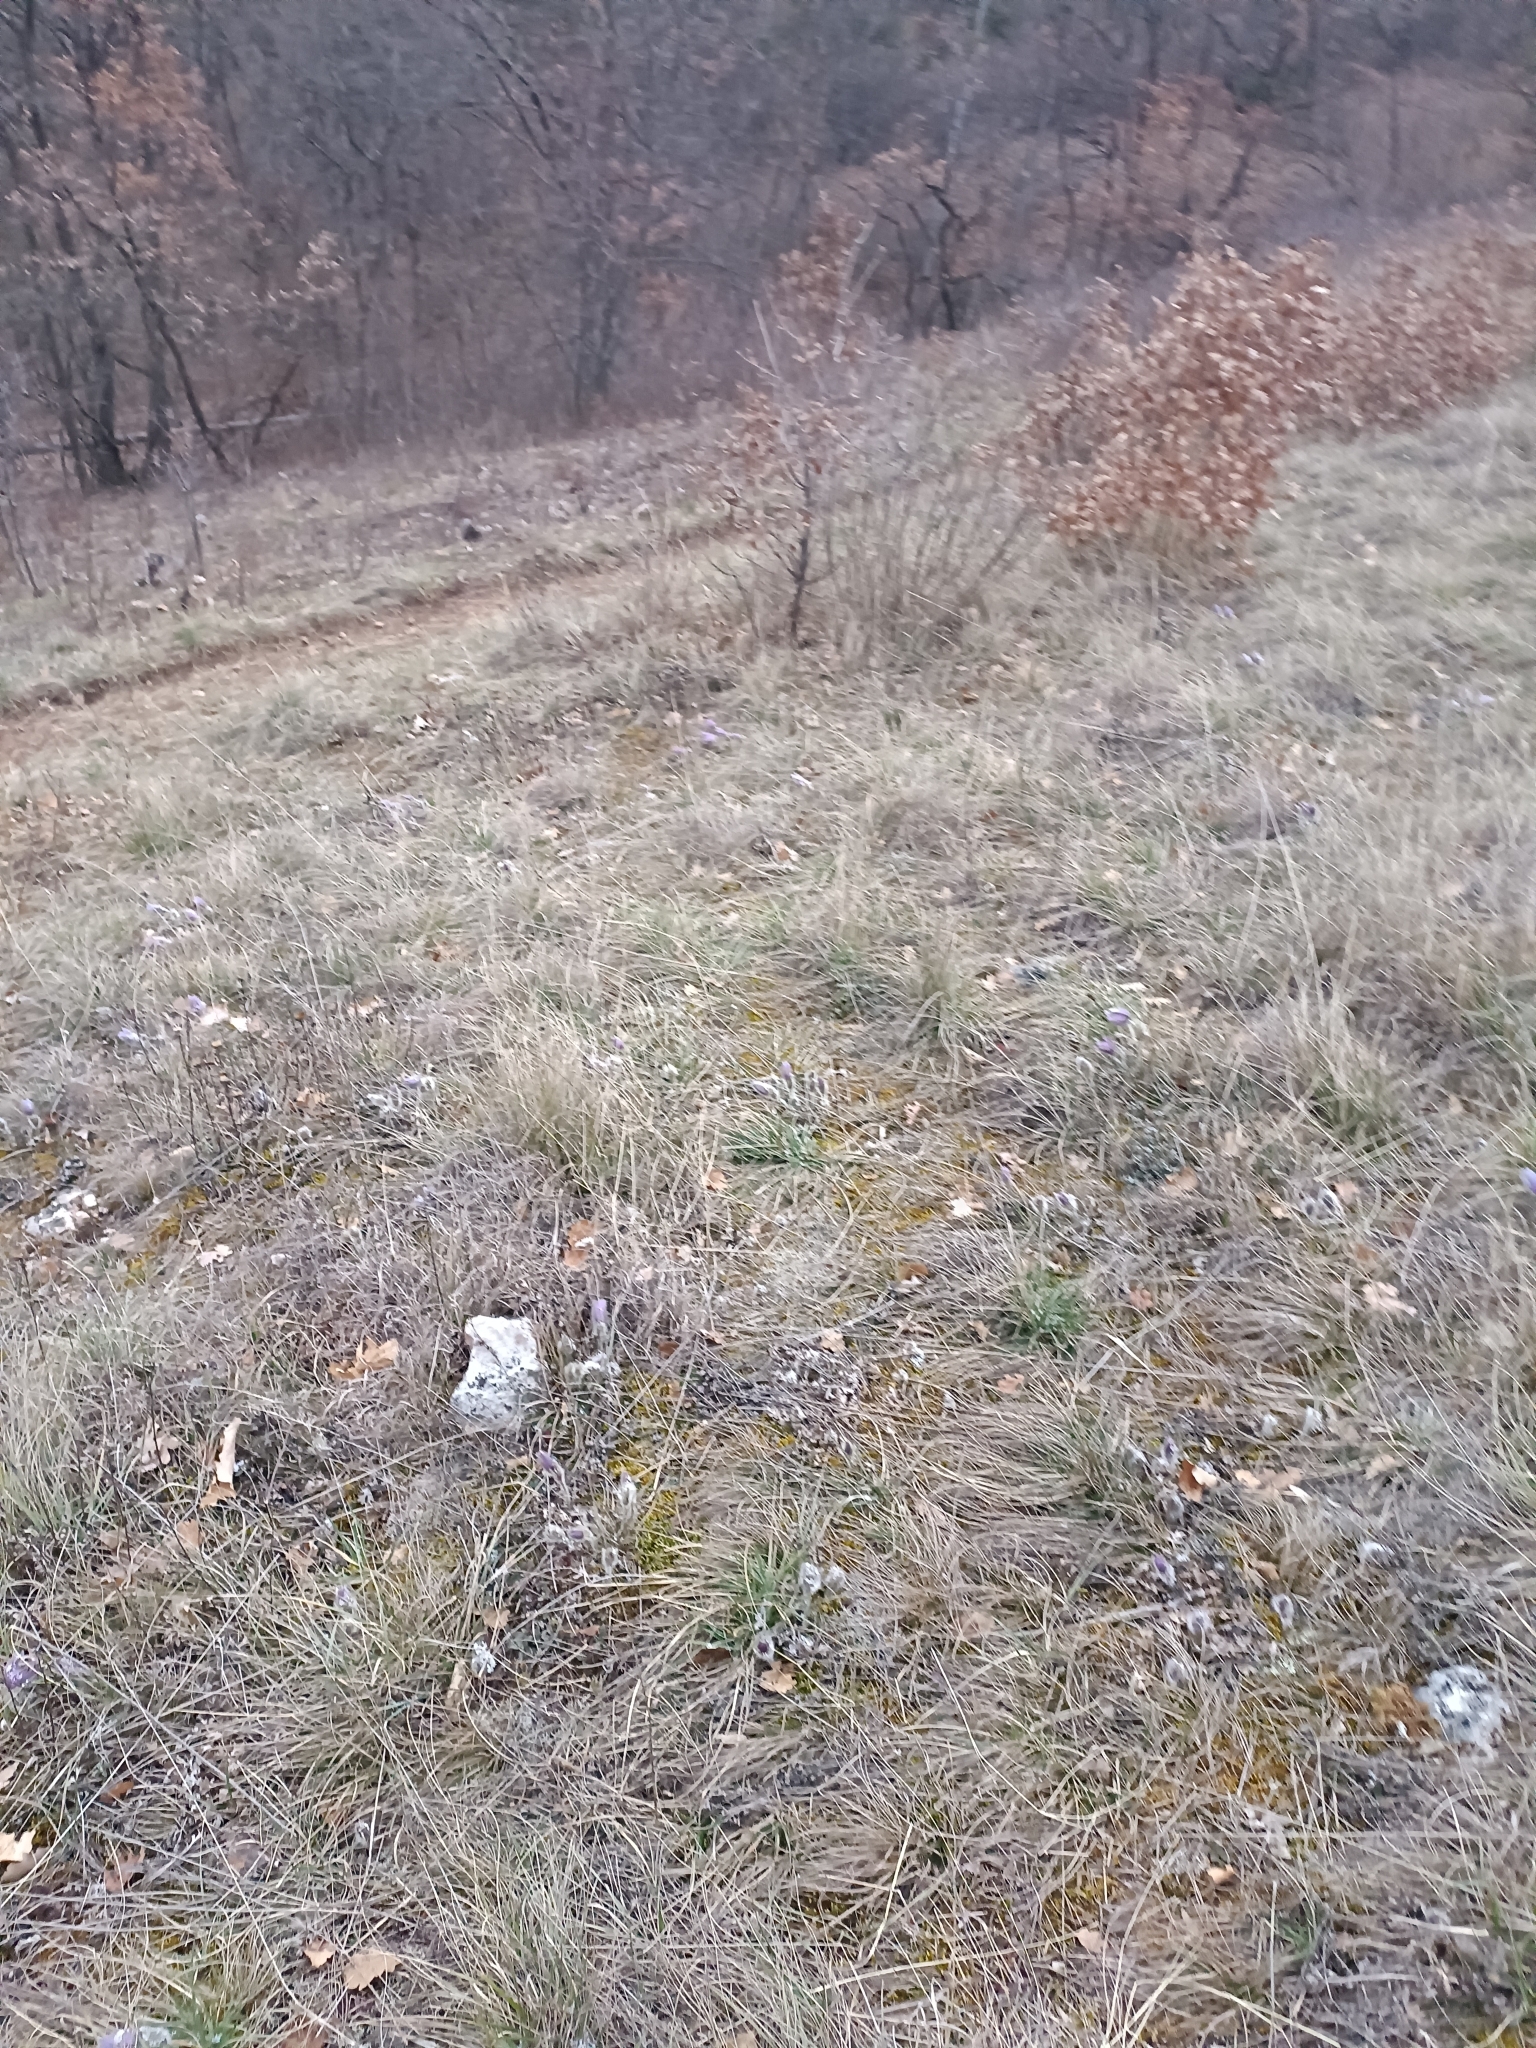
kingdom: Plantae
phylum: Tracheophyta
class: Magnoliopsida
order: Ranunculales
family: Ranunculaceae
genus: Pulsatilla
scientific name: Pulsatilla grandis
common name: Greater pasque flower
